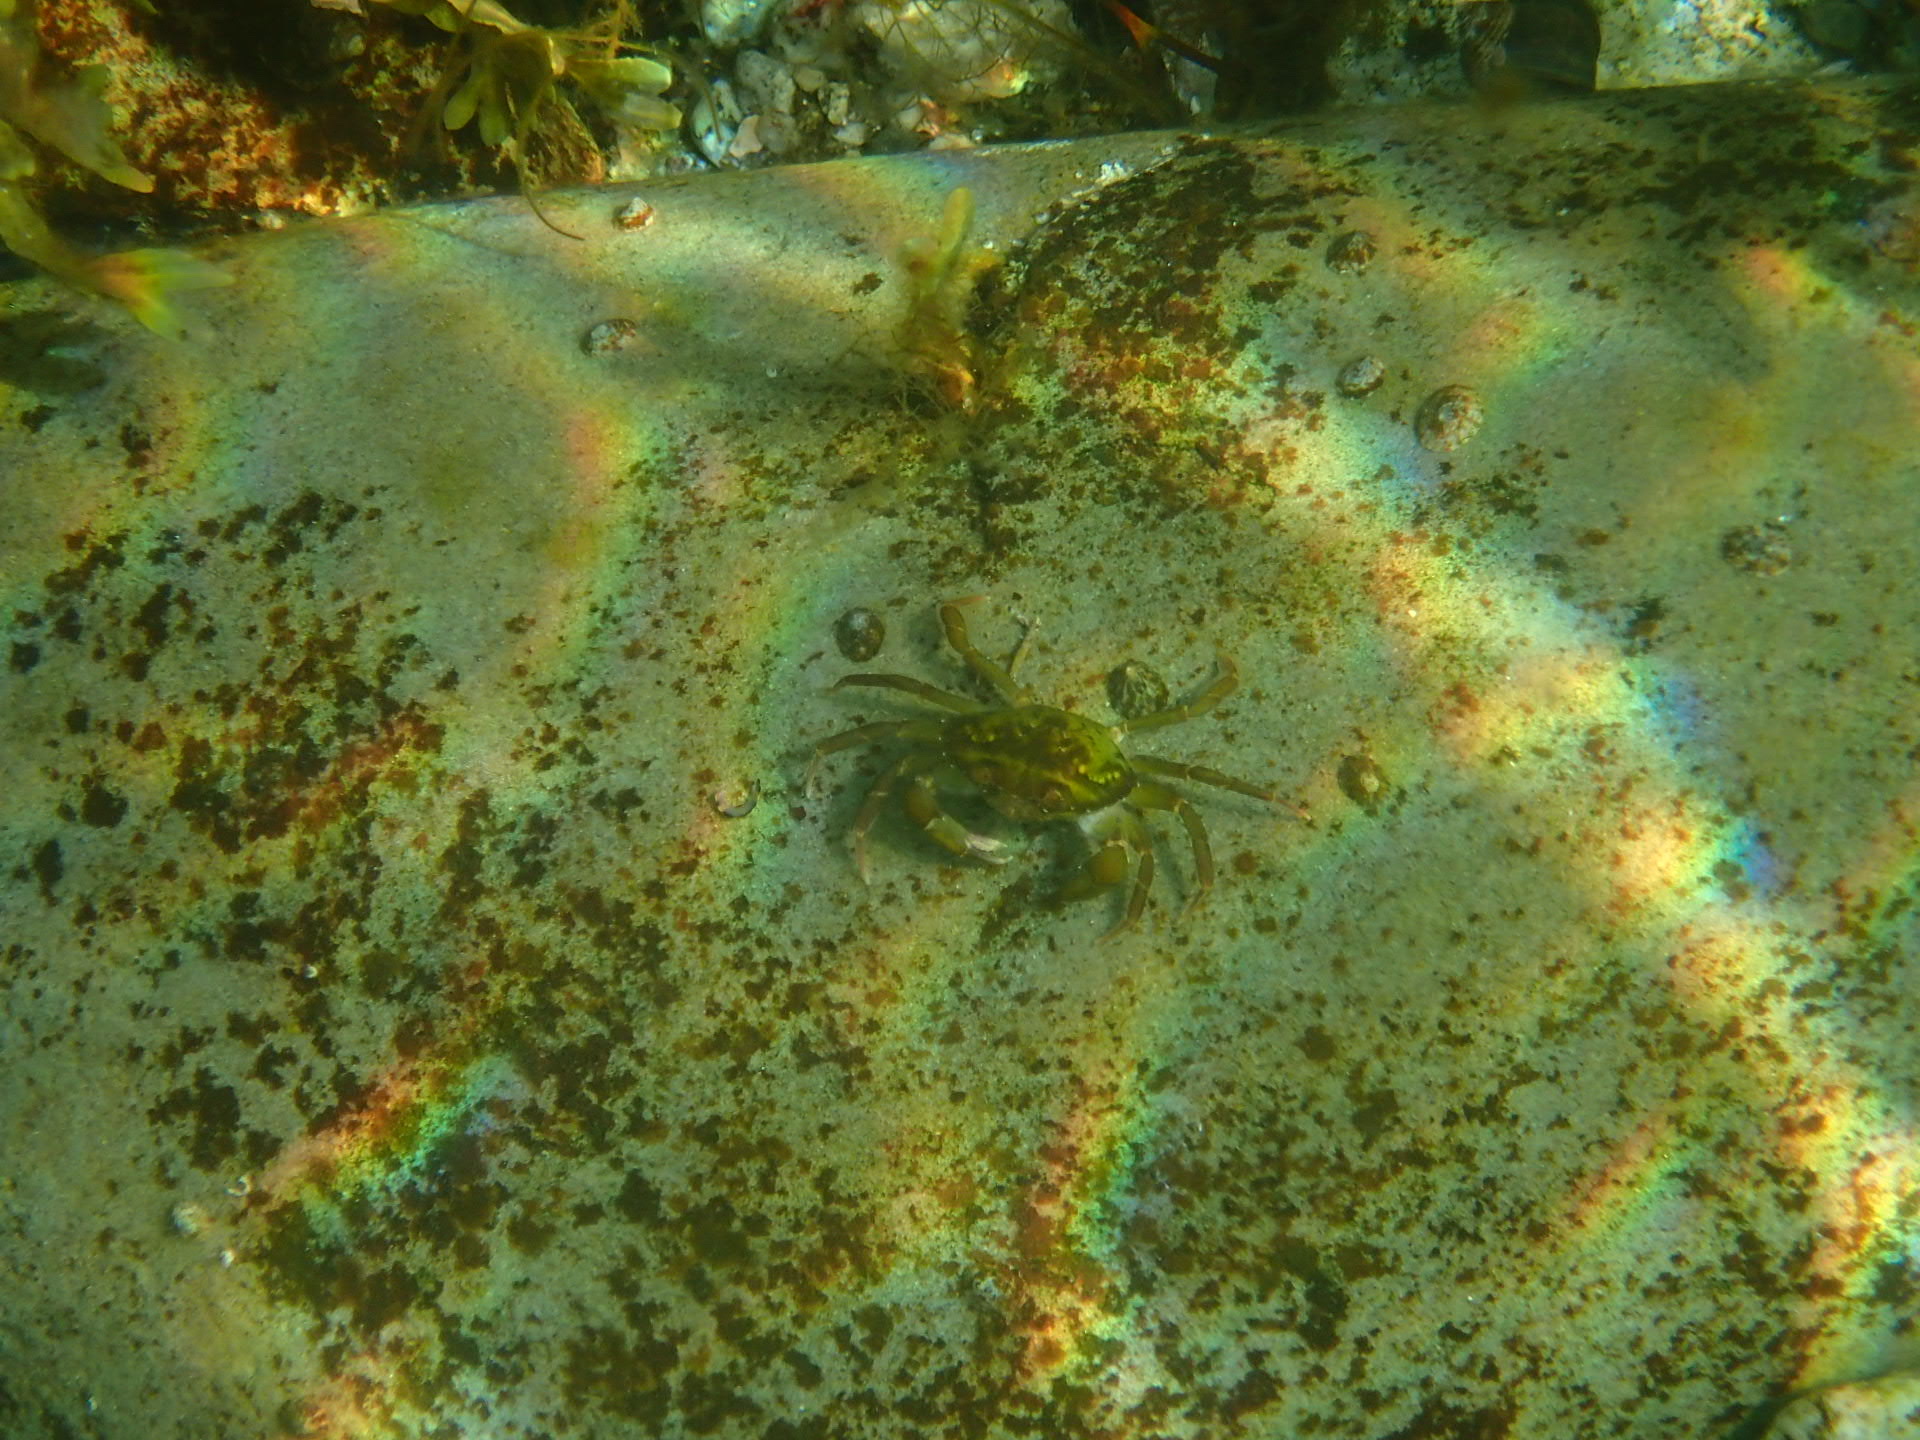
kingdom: Animalia
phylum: Arthropoda
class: Malacostraca
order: Decapoda
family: Carcinidae
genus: Carcinus
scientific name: Carcinus maenas
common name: European green crab
